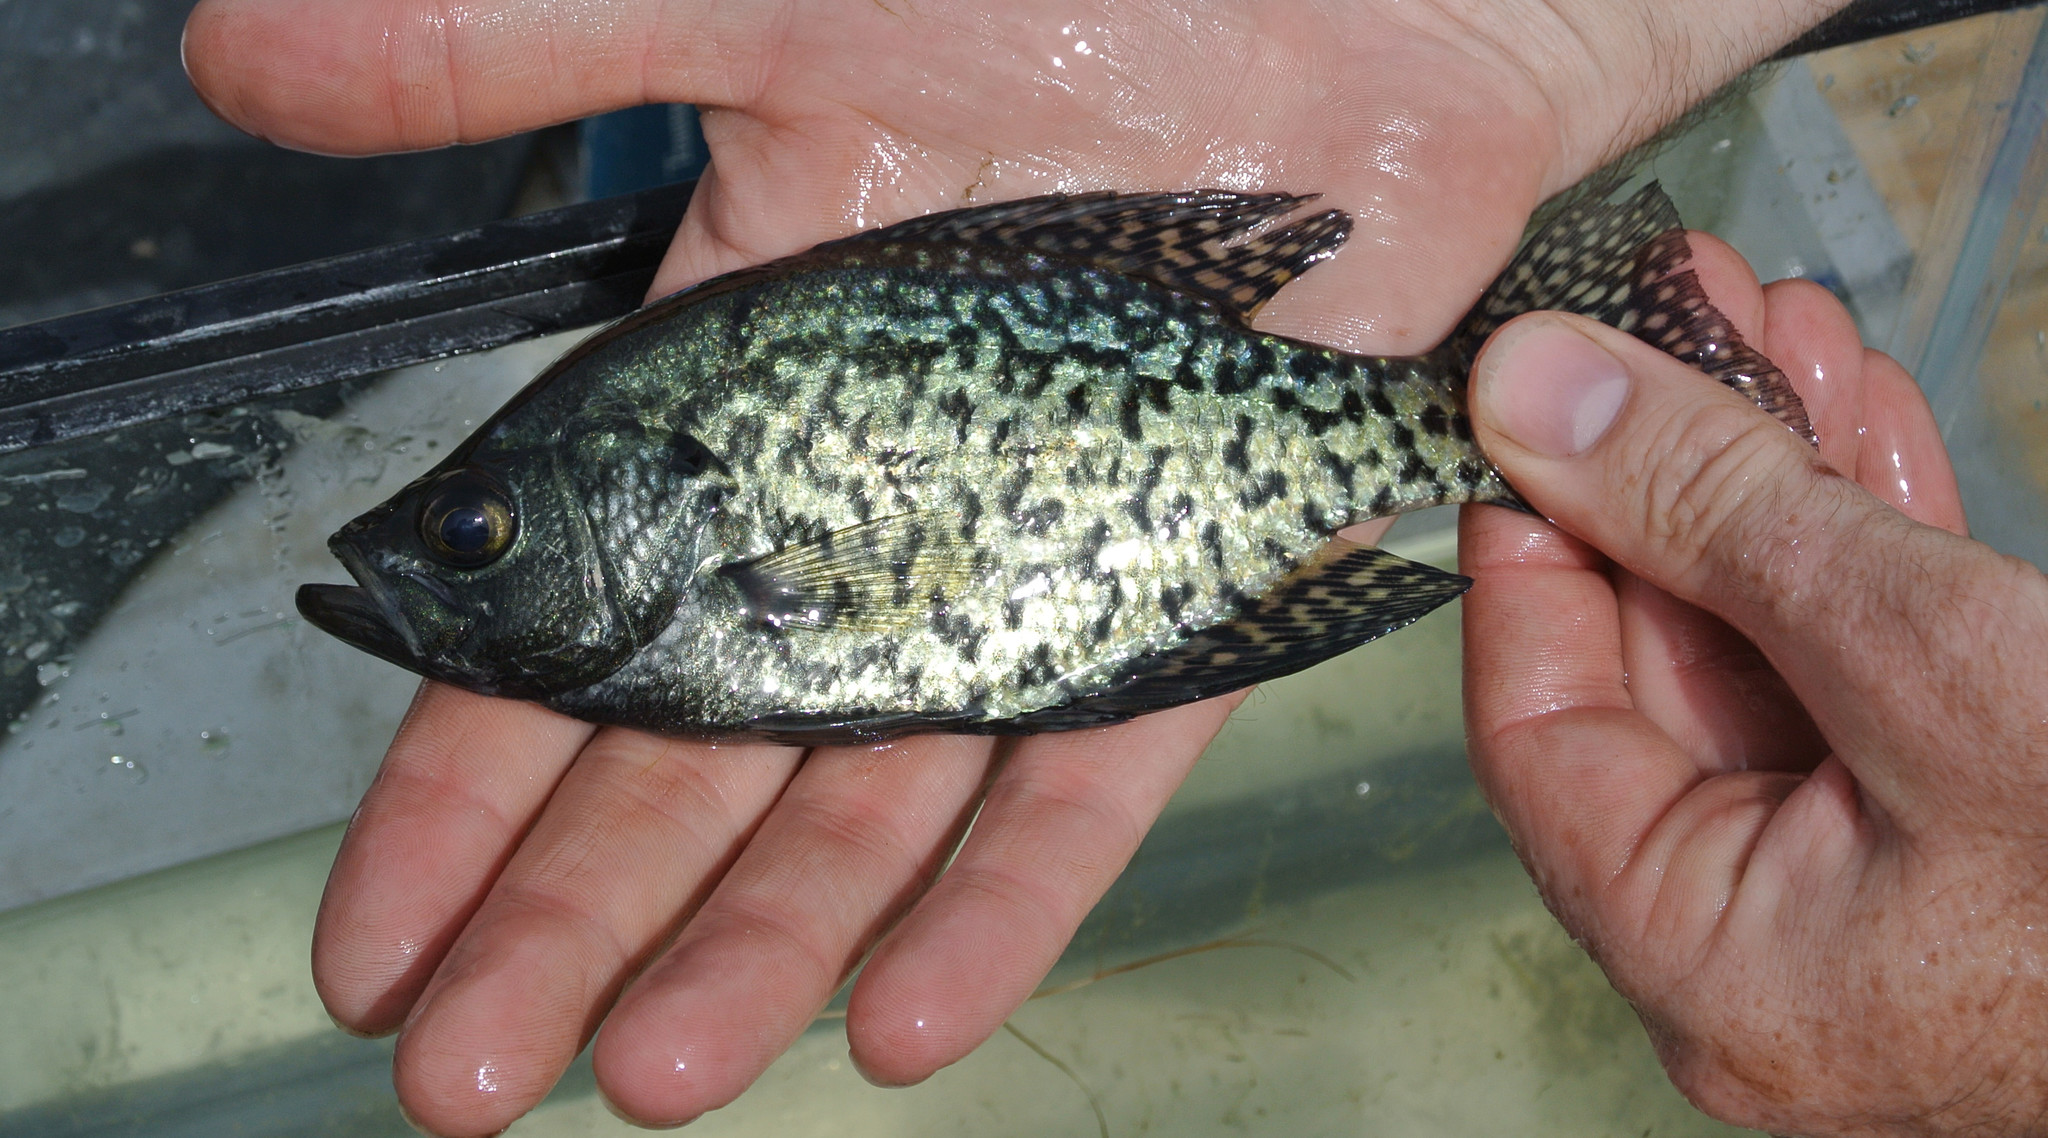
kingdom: Animalia
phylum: Chordata
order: Perciformes
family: Centrarchidae
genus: Pomoxis
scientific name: Pomoxis nigromaculatus
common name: Black crappie
